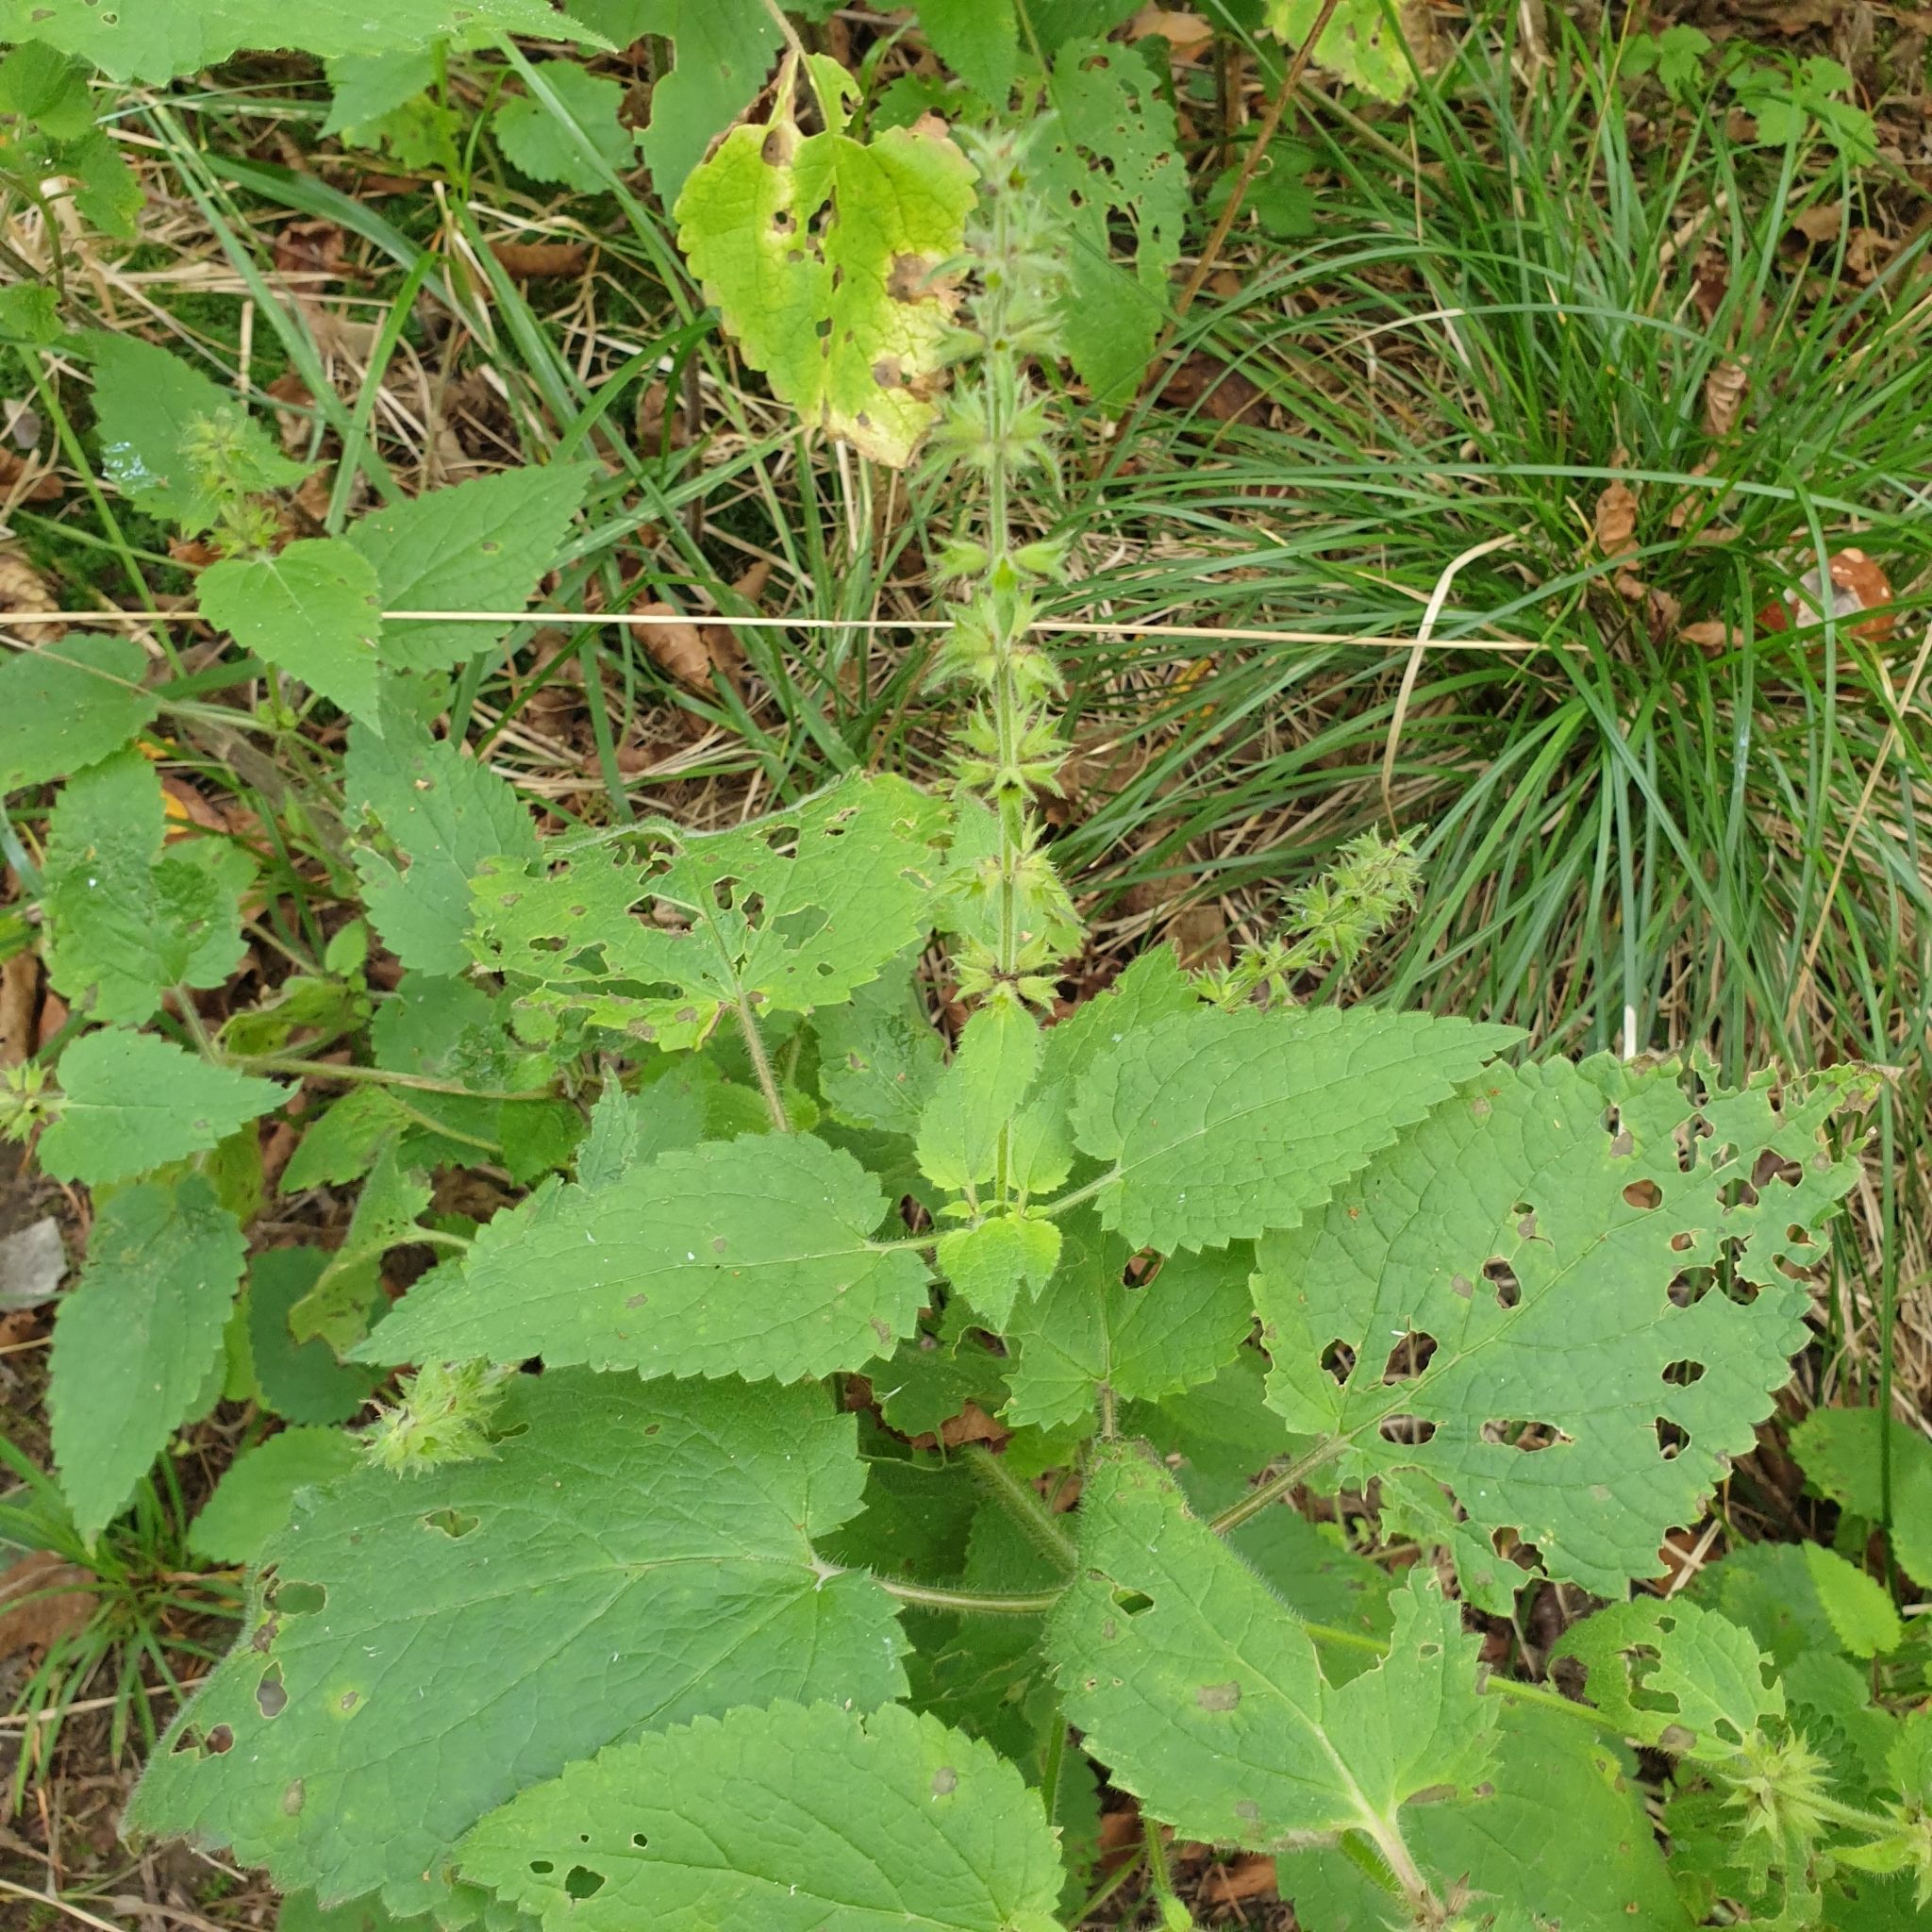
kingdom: Plantae
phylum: Tracheophyta
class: Magnoliopsida
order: Lamiales
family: Lamiaceae
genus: Stachys
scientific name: Stachys sylvatica
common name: Hedge woundwort
